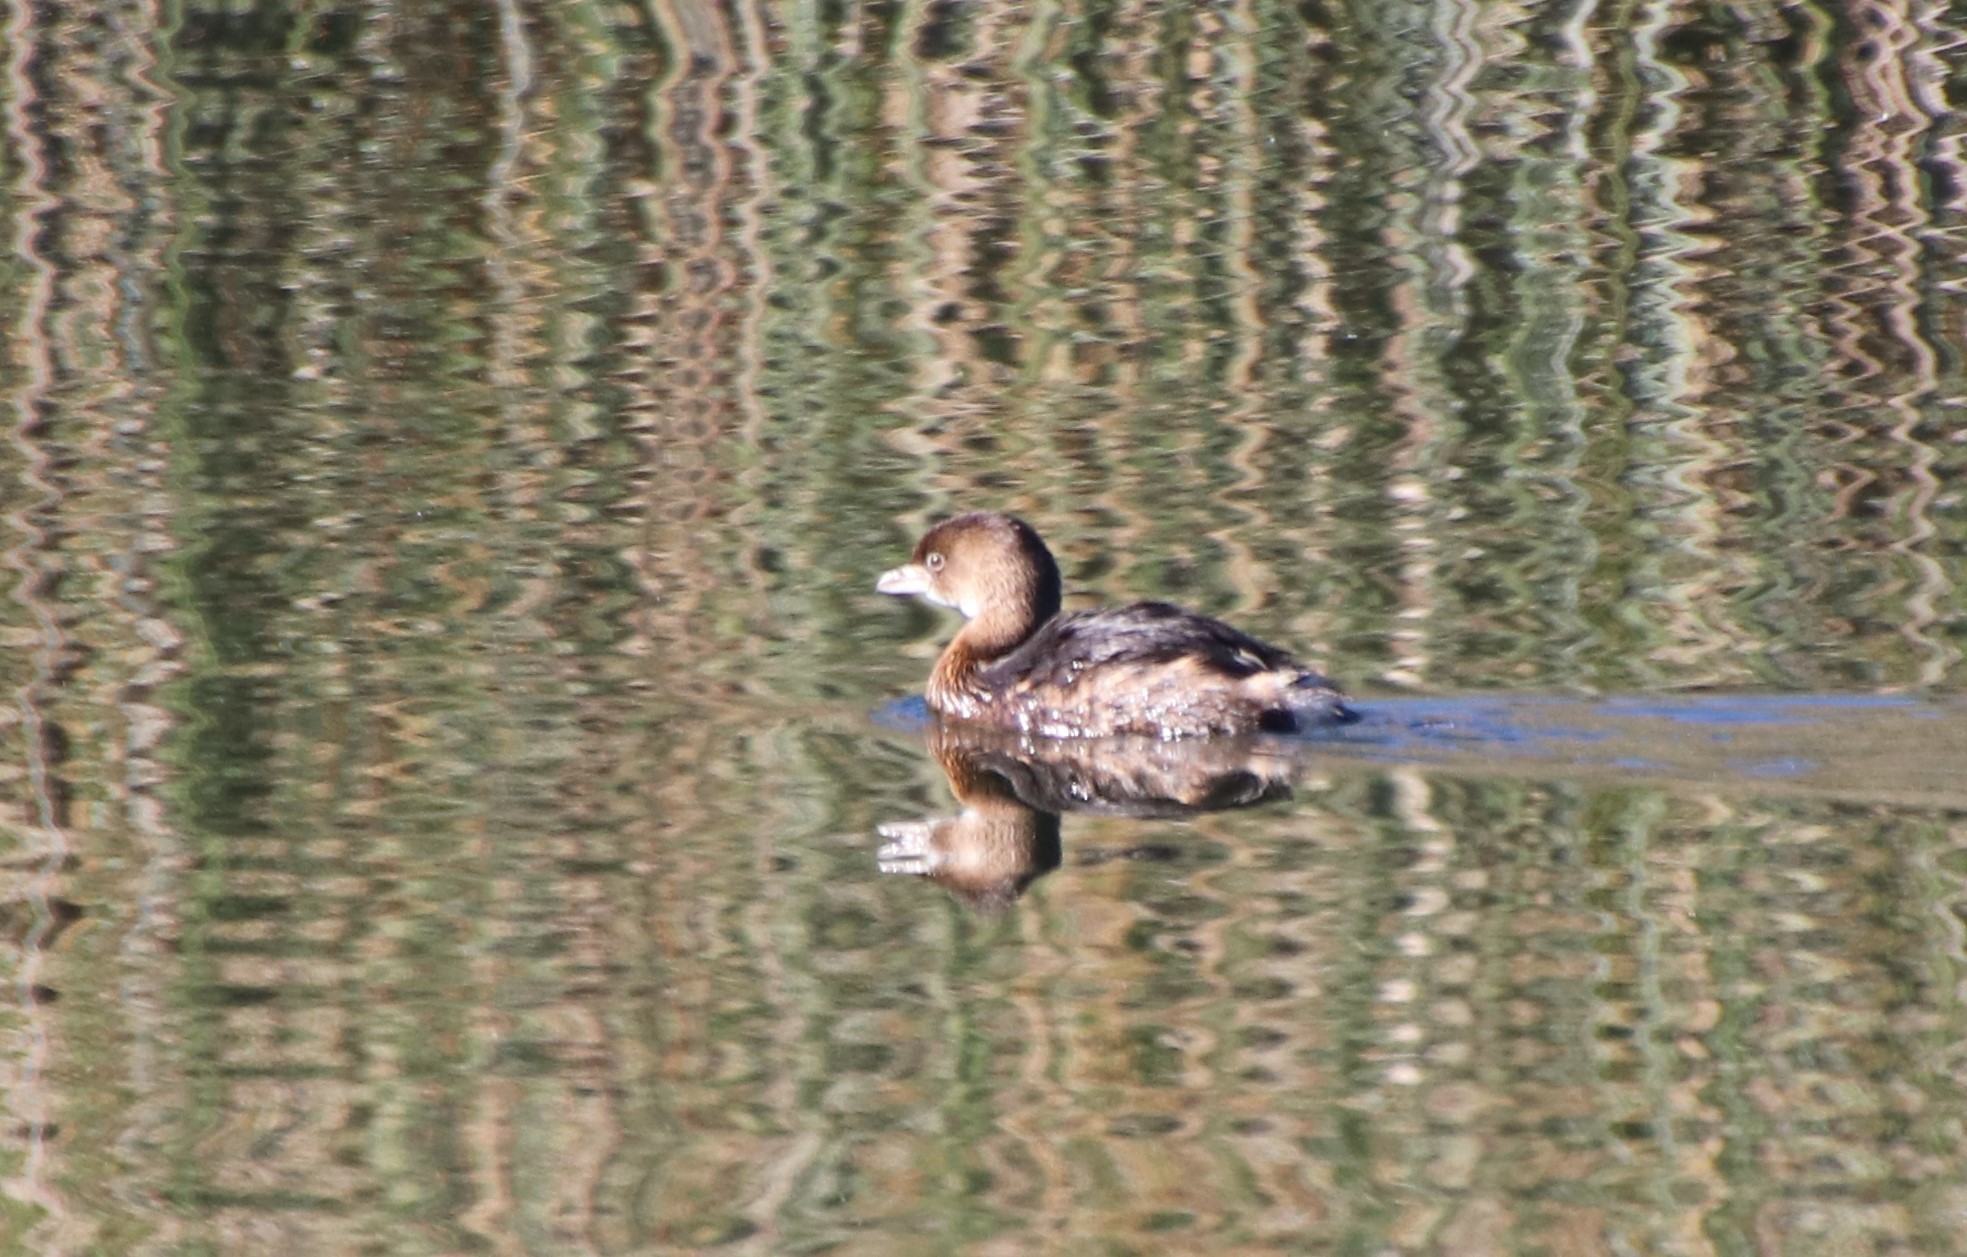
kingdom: Animalia
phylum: Chordata
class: Aves
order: Podicipediformes
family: Podicipedidae
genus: Podilymbus
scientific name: Podilymbus podiceps
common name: Pied-billed grebe
